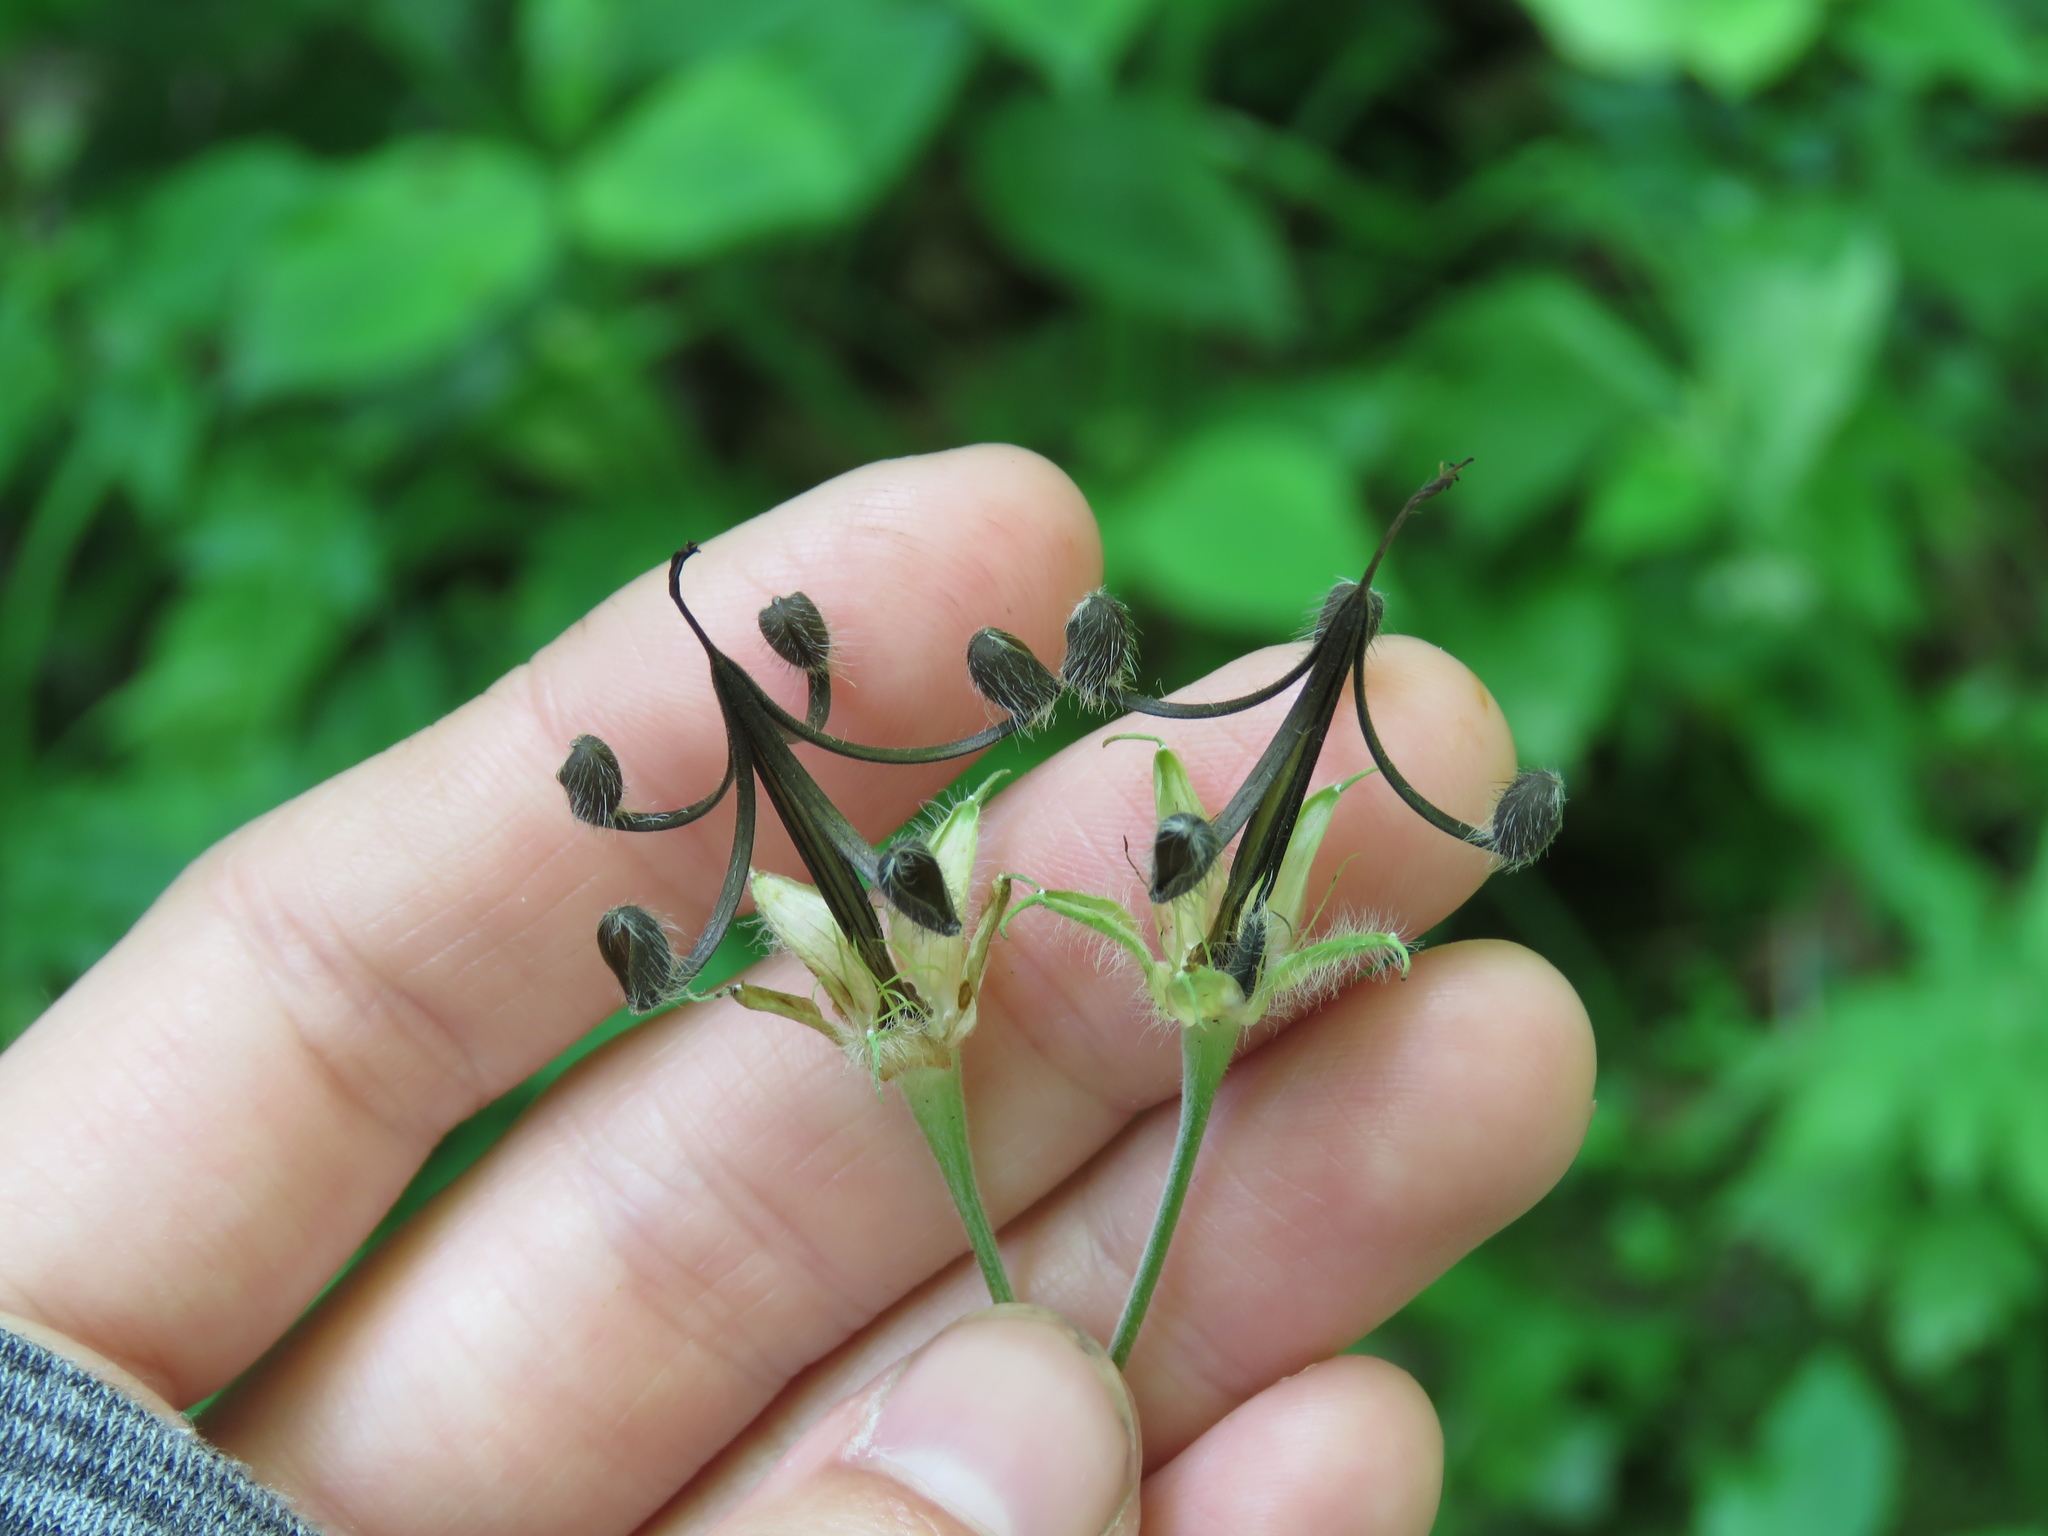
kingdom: Plantae
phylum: Tracheophyta
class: Magnoliopsida
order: Geraniales
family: Geraniaceae
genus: Geranium
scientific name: Geranium maculatum
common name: Spotted geranium
